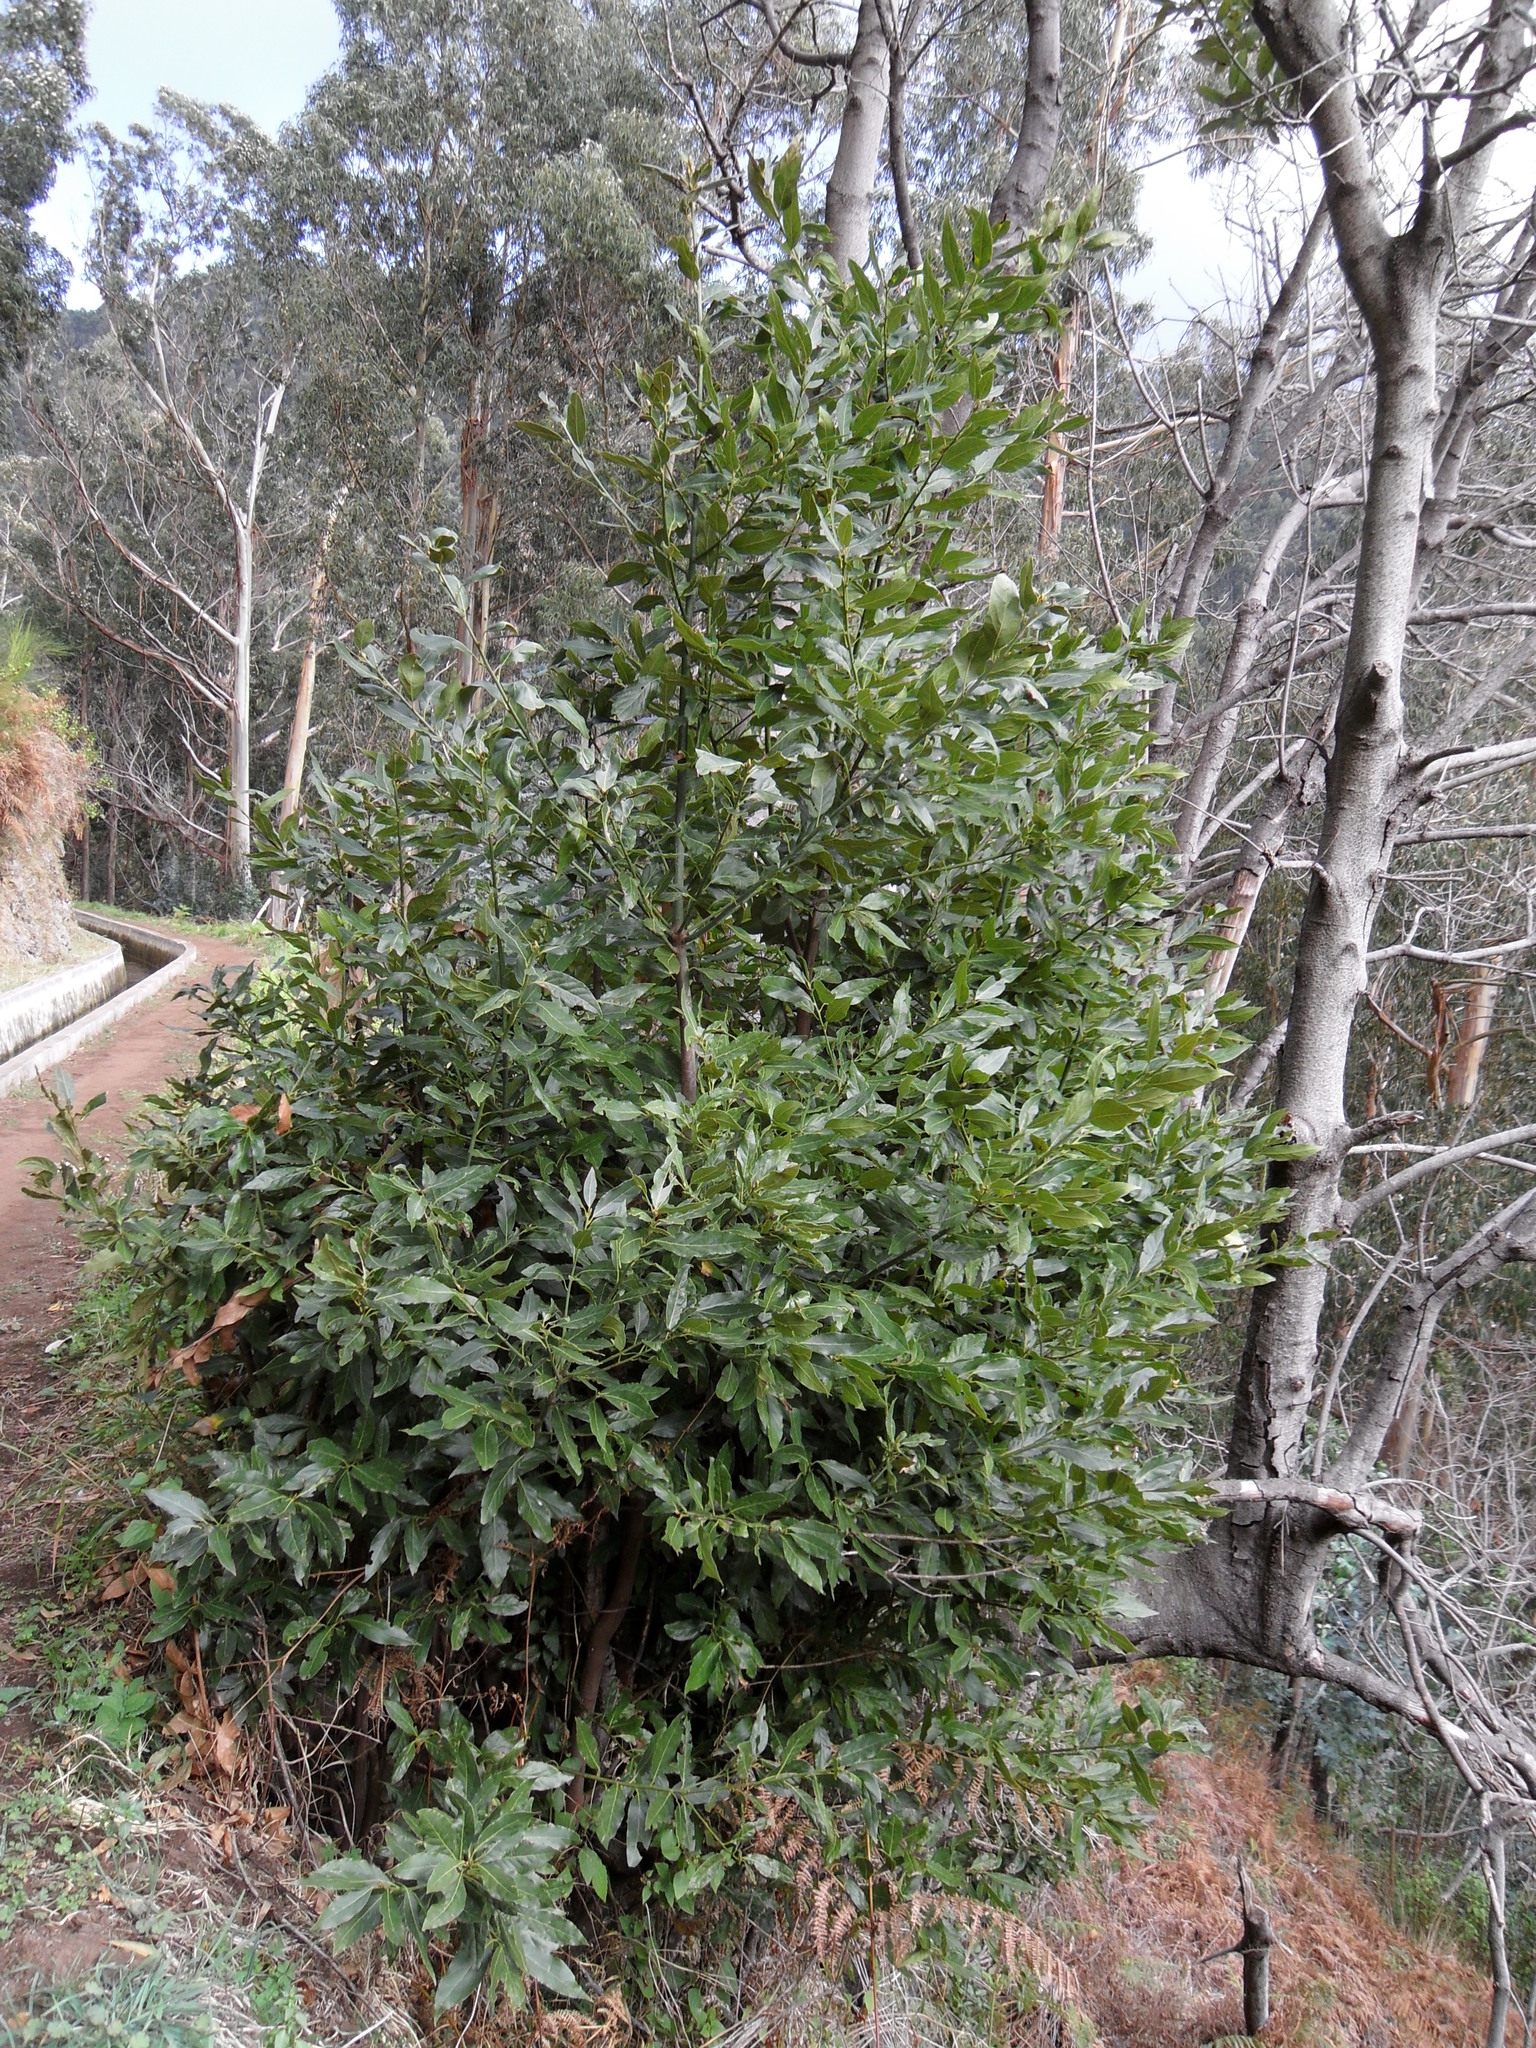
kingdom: Plantae
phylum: Tracheophyta
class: Magnoliopsida
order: Laurales
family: Lauraceae
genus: Laurus
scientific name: Laurus novocanariensis
